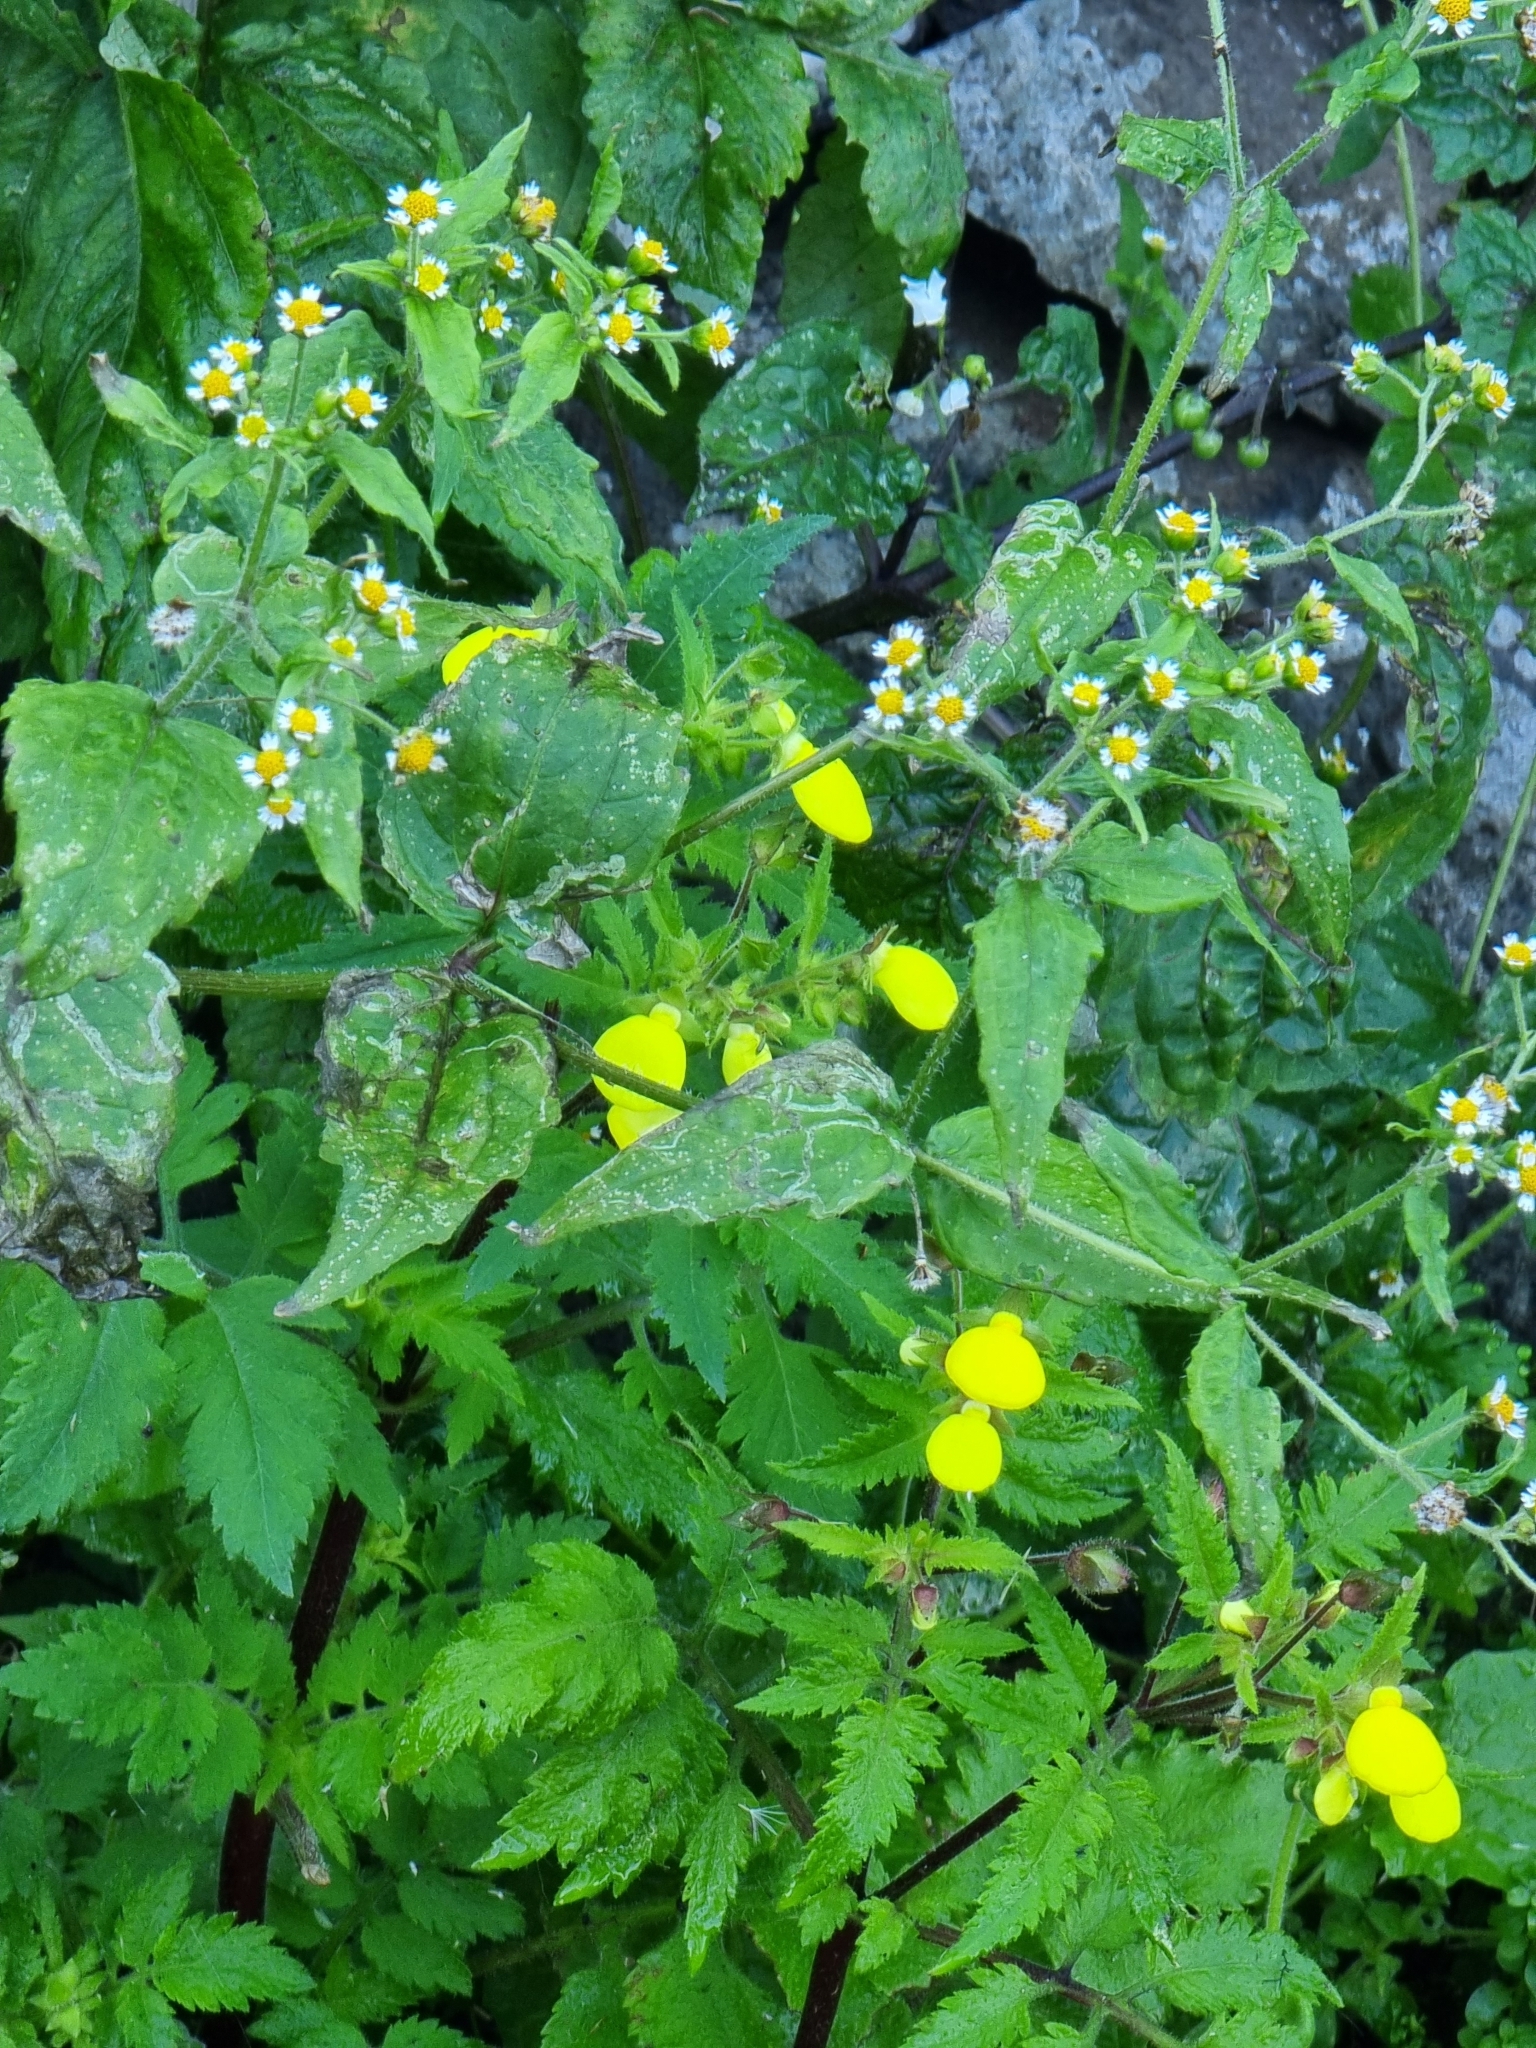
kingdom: Plantae
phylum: Tracheophyta
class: Magnoliopsida
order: Lamiales
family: Calceolariaceae
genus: Calceolaria
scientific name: Calceolaria tripartita
